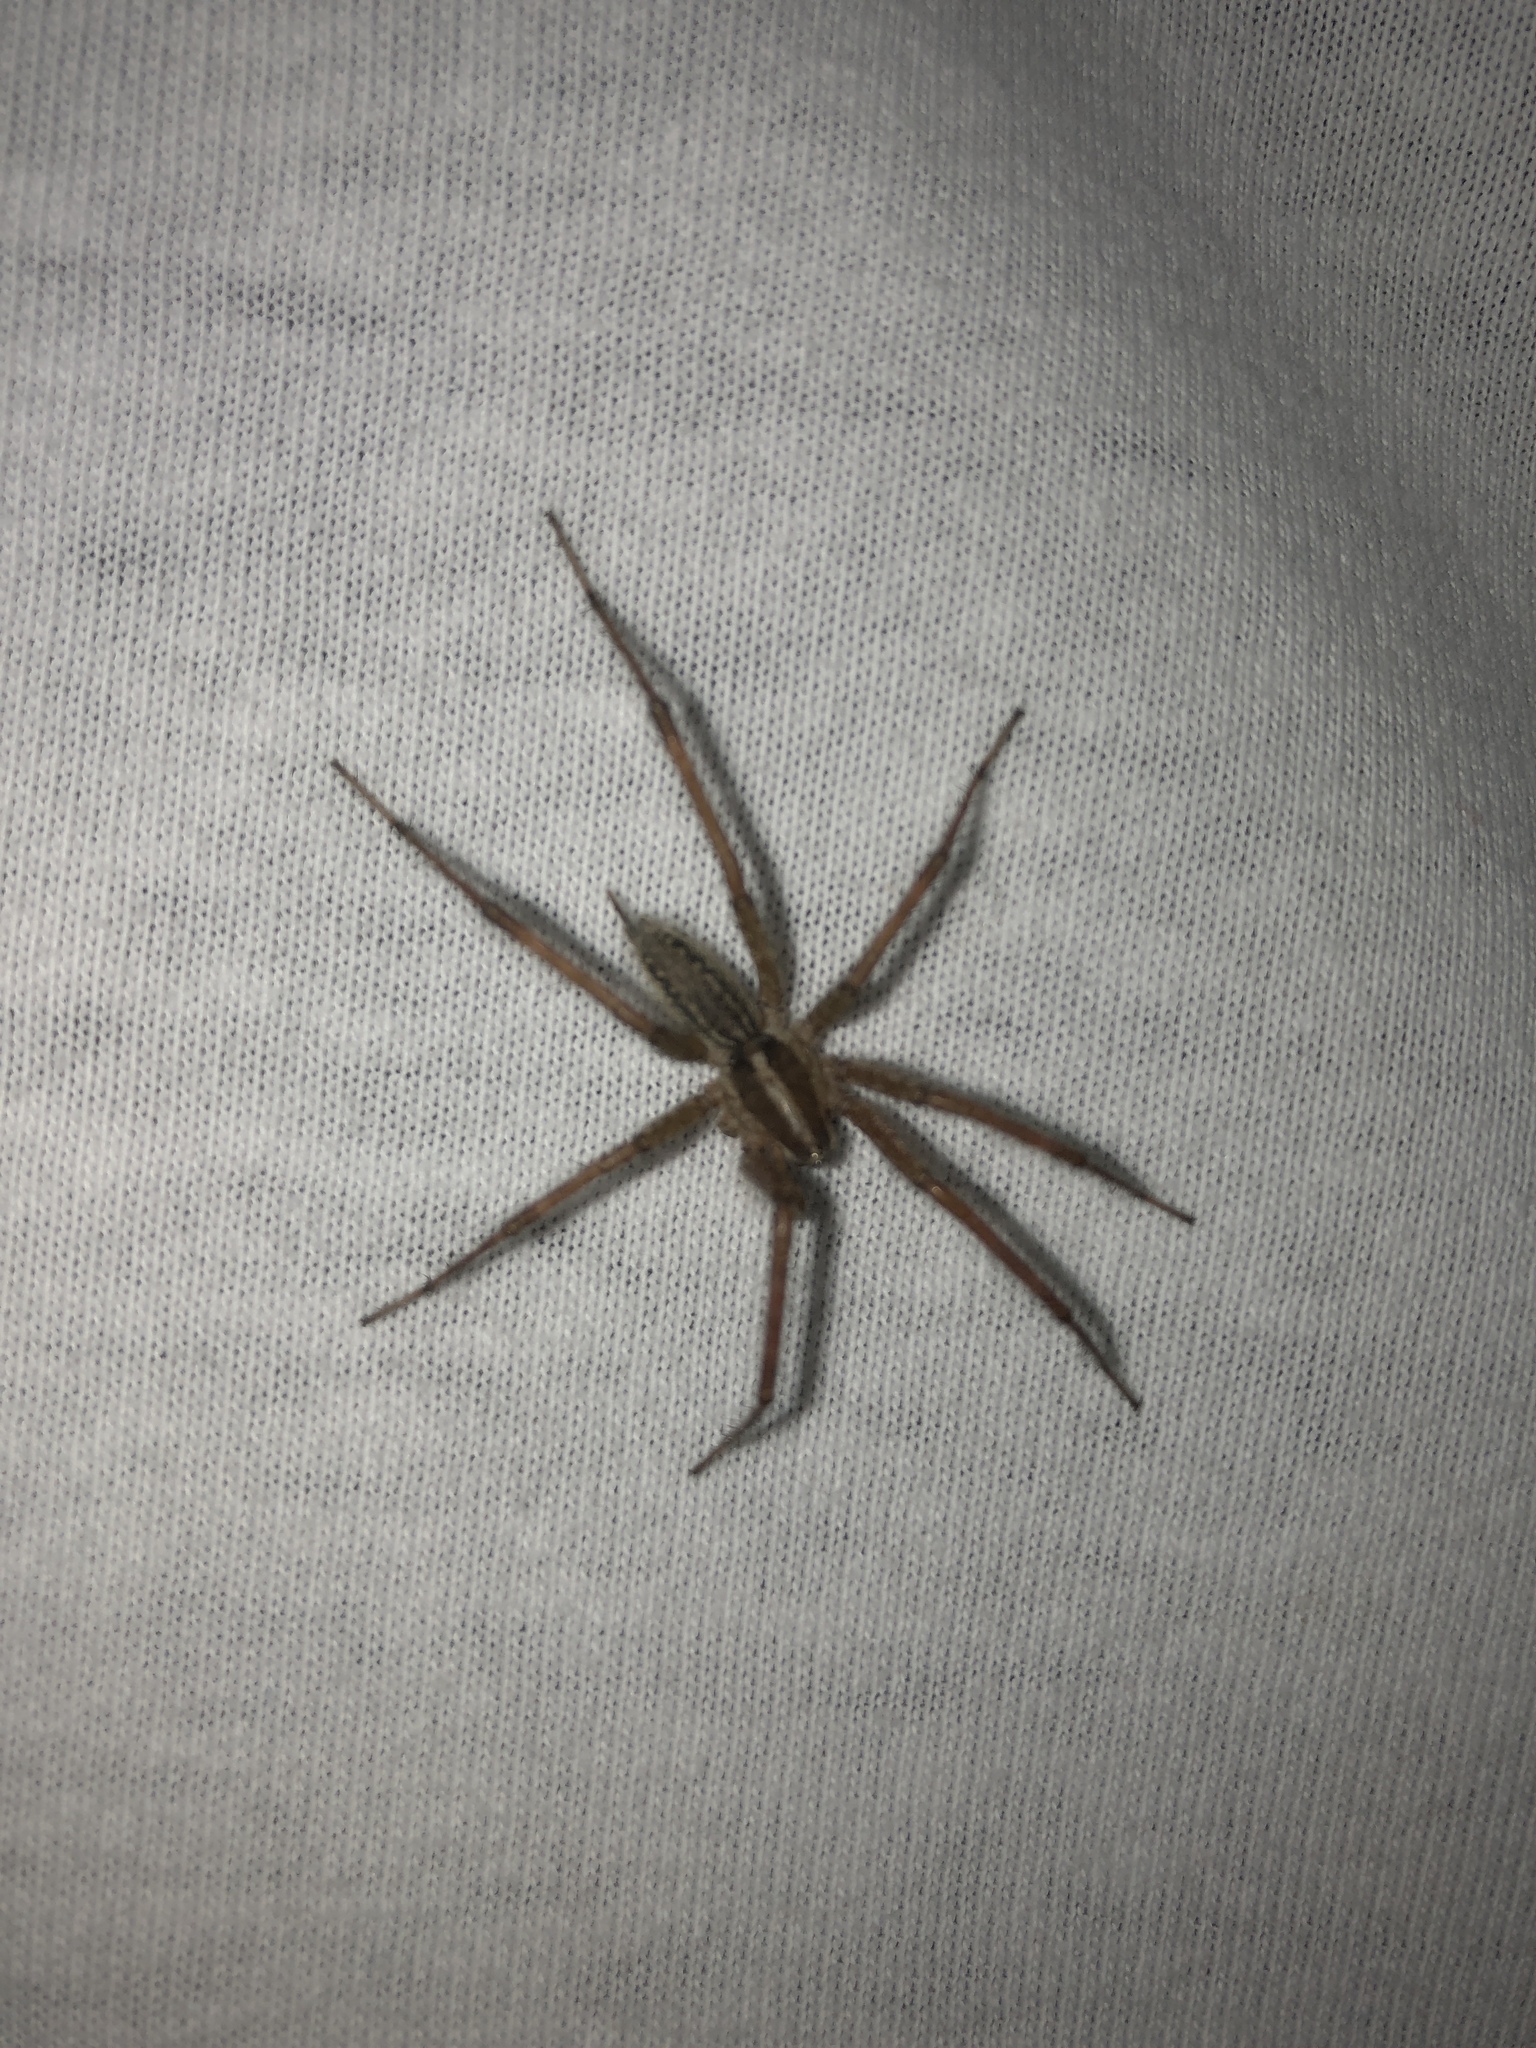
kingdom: Animalia
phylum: Arthropoda
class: Arachnida
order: Araneae
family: Agelenidae
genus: Agelenopsis
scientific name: Agelenopsis
